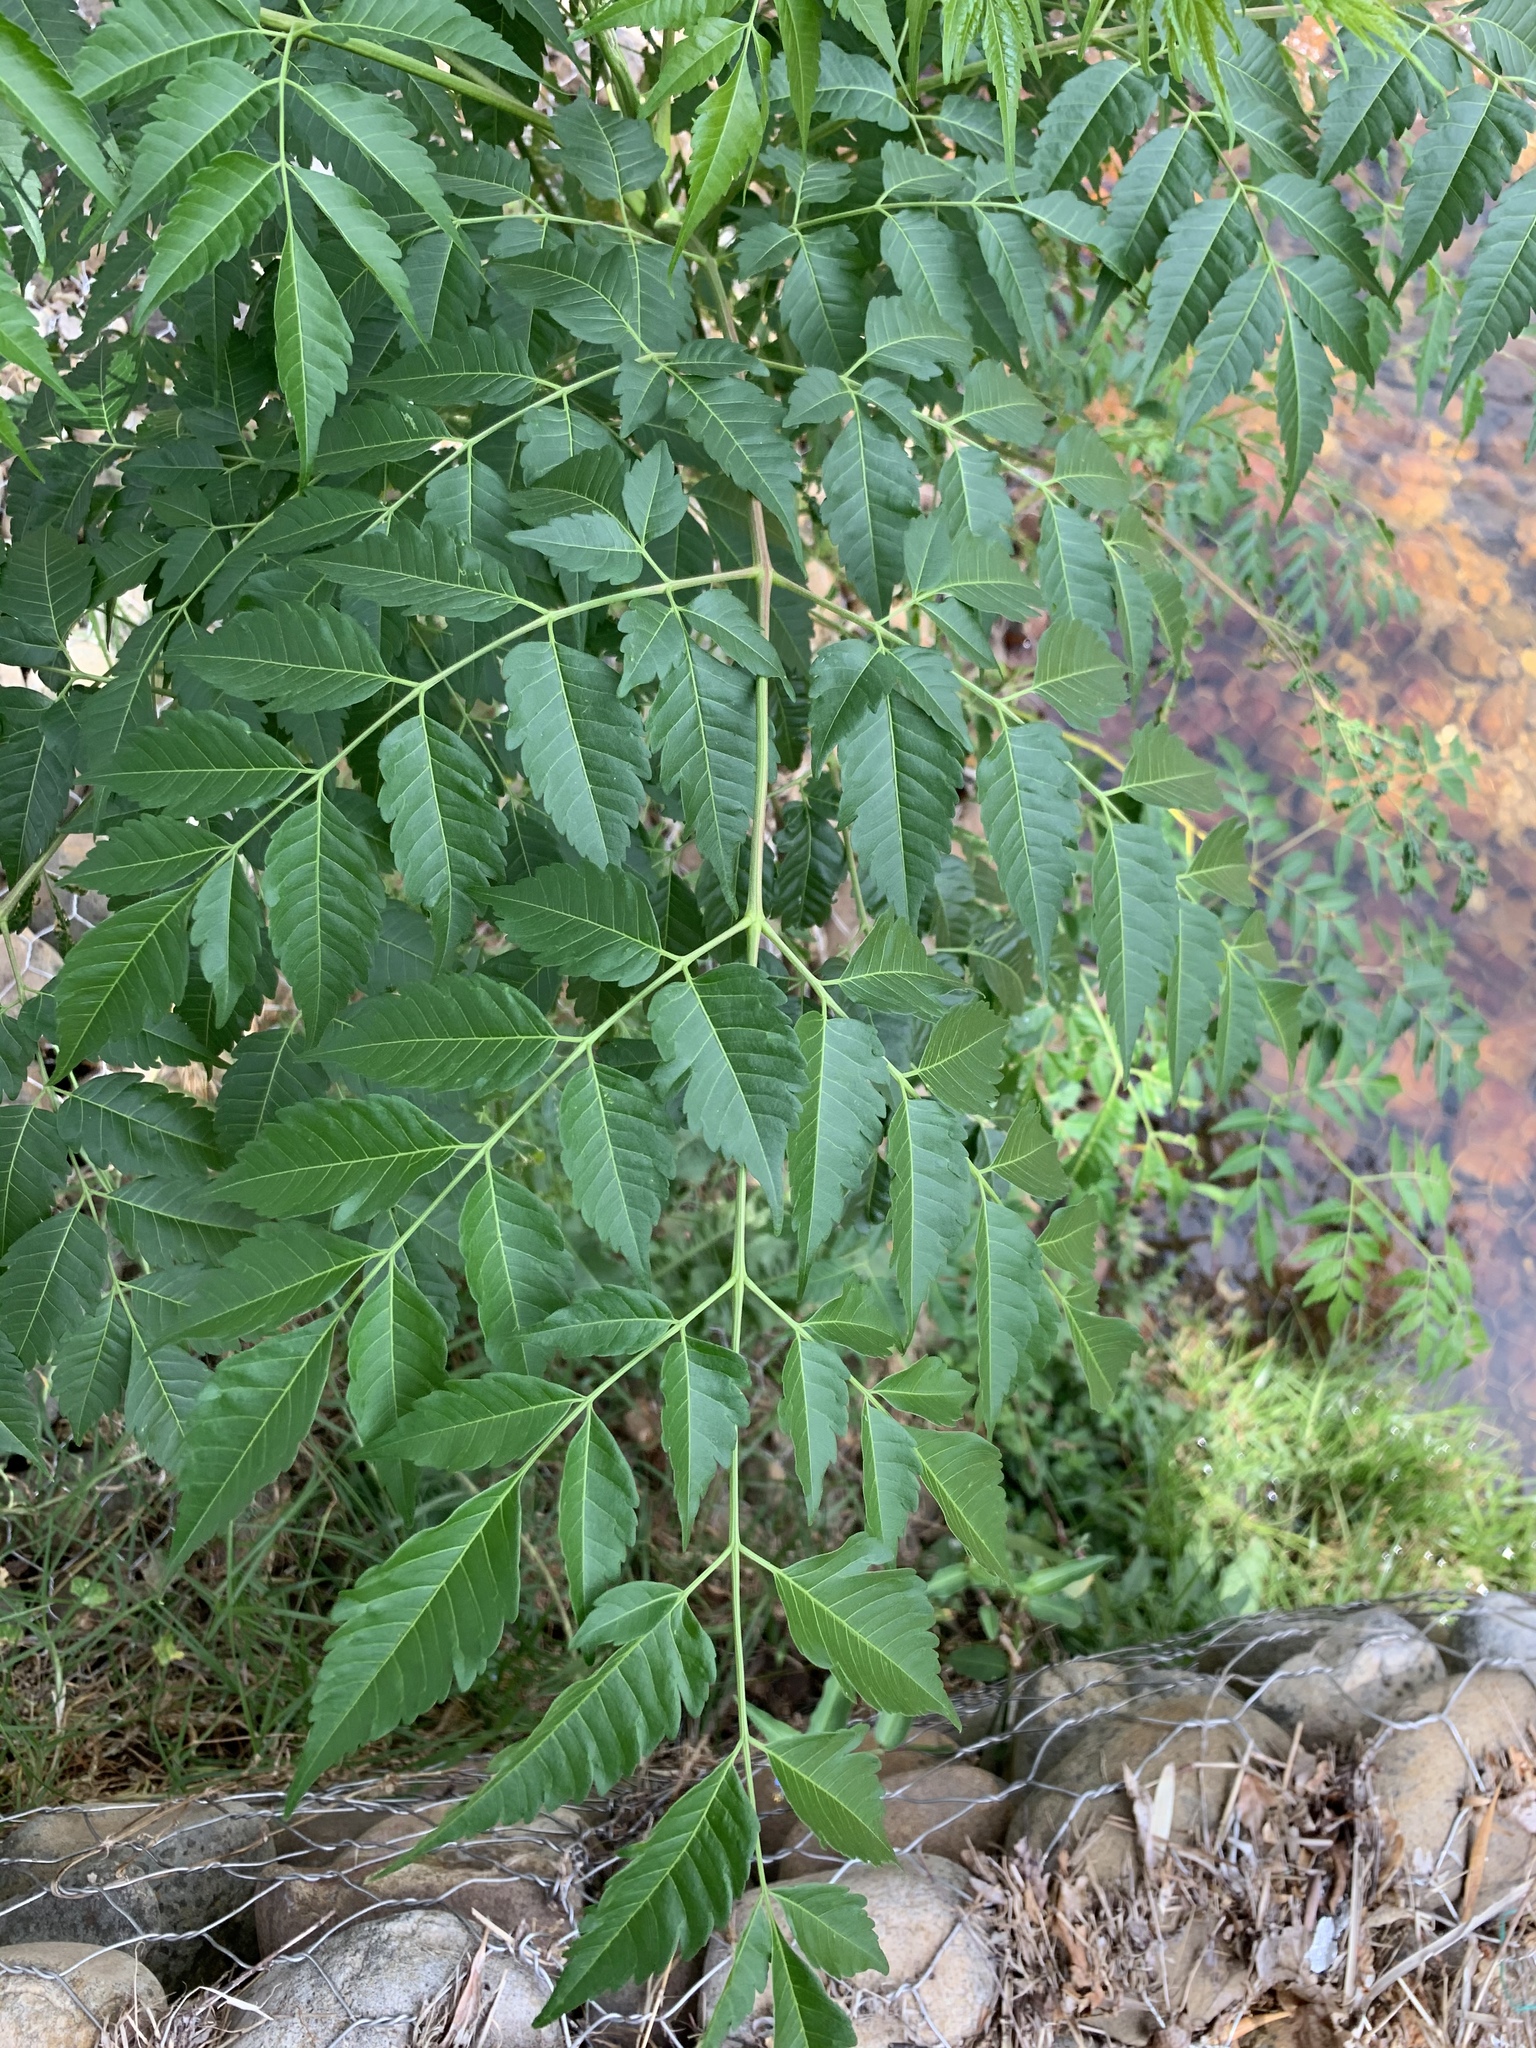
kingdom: Plantae
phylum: Tracheophyta
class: Magnoliopsida
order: Sapindales
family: Meliaceae
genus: Melia
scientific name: Melia azedarach
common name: Chinaberrytree
